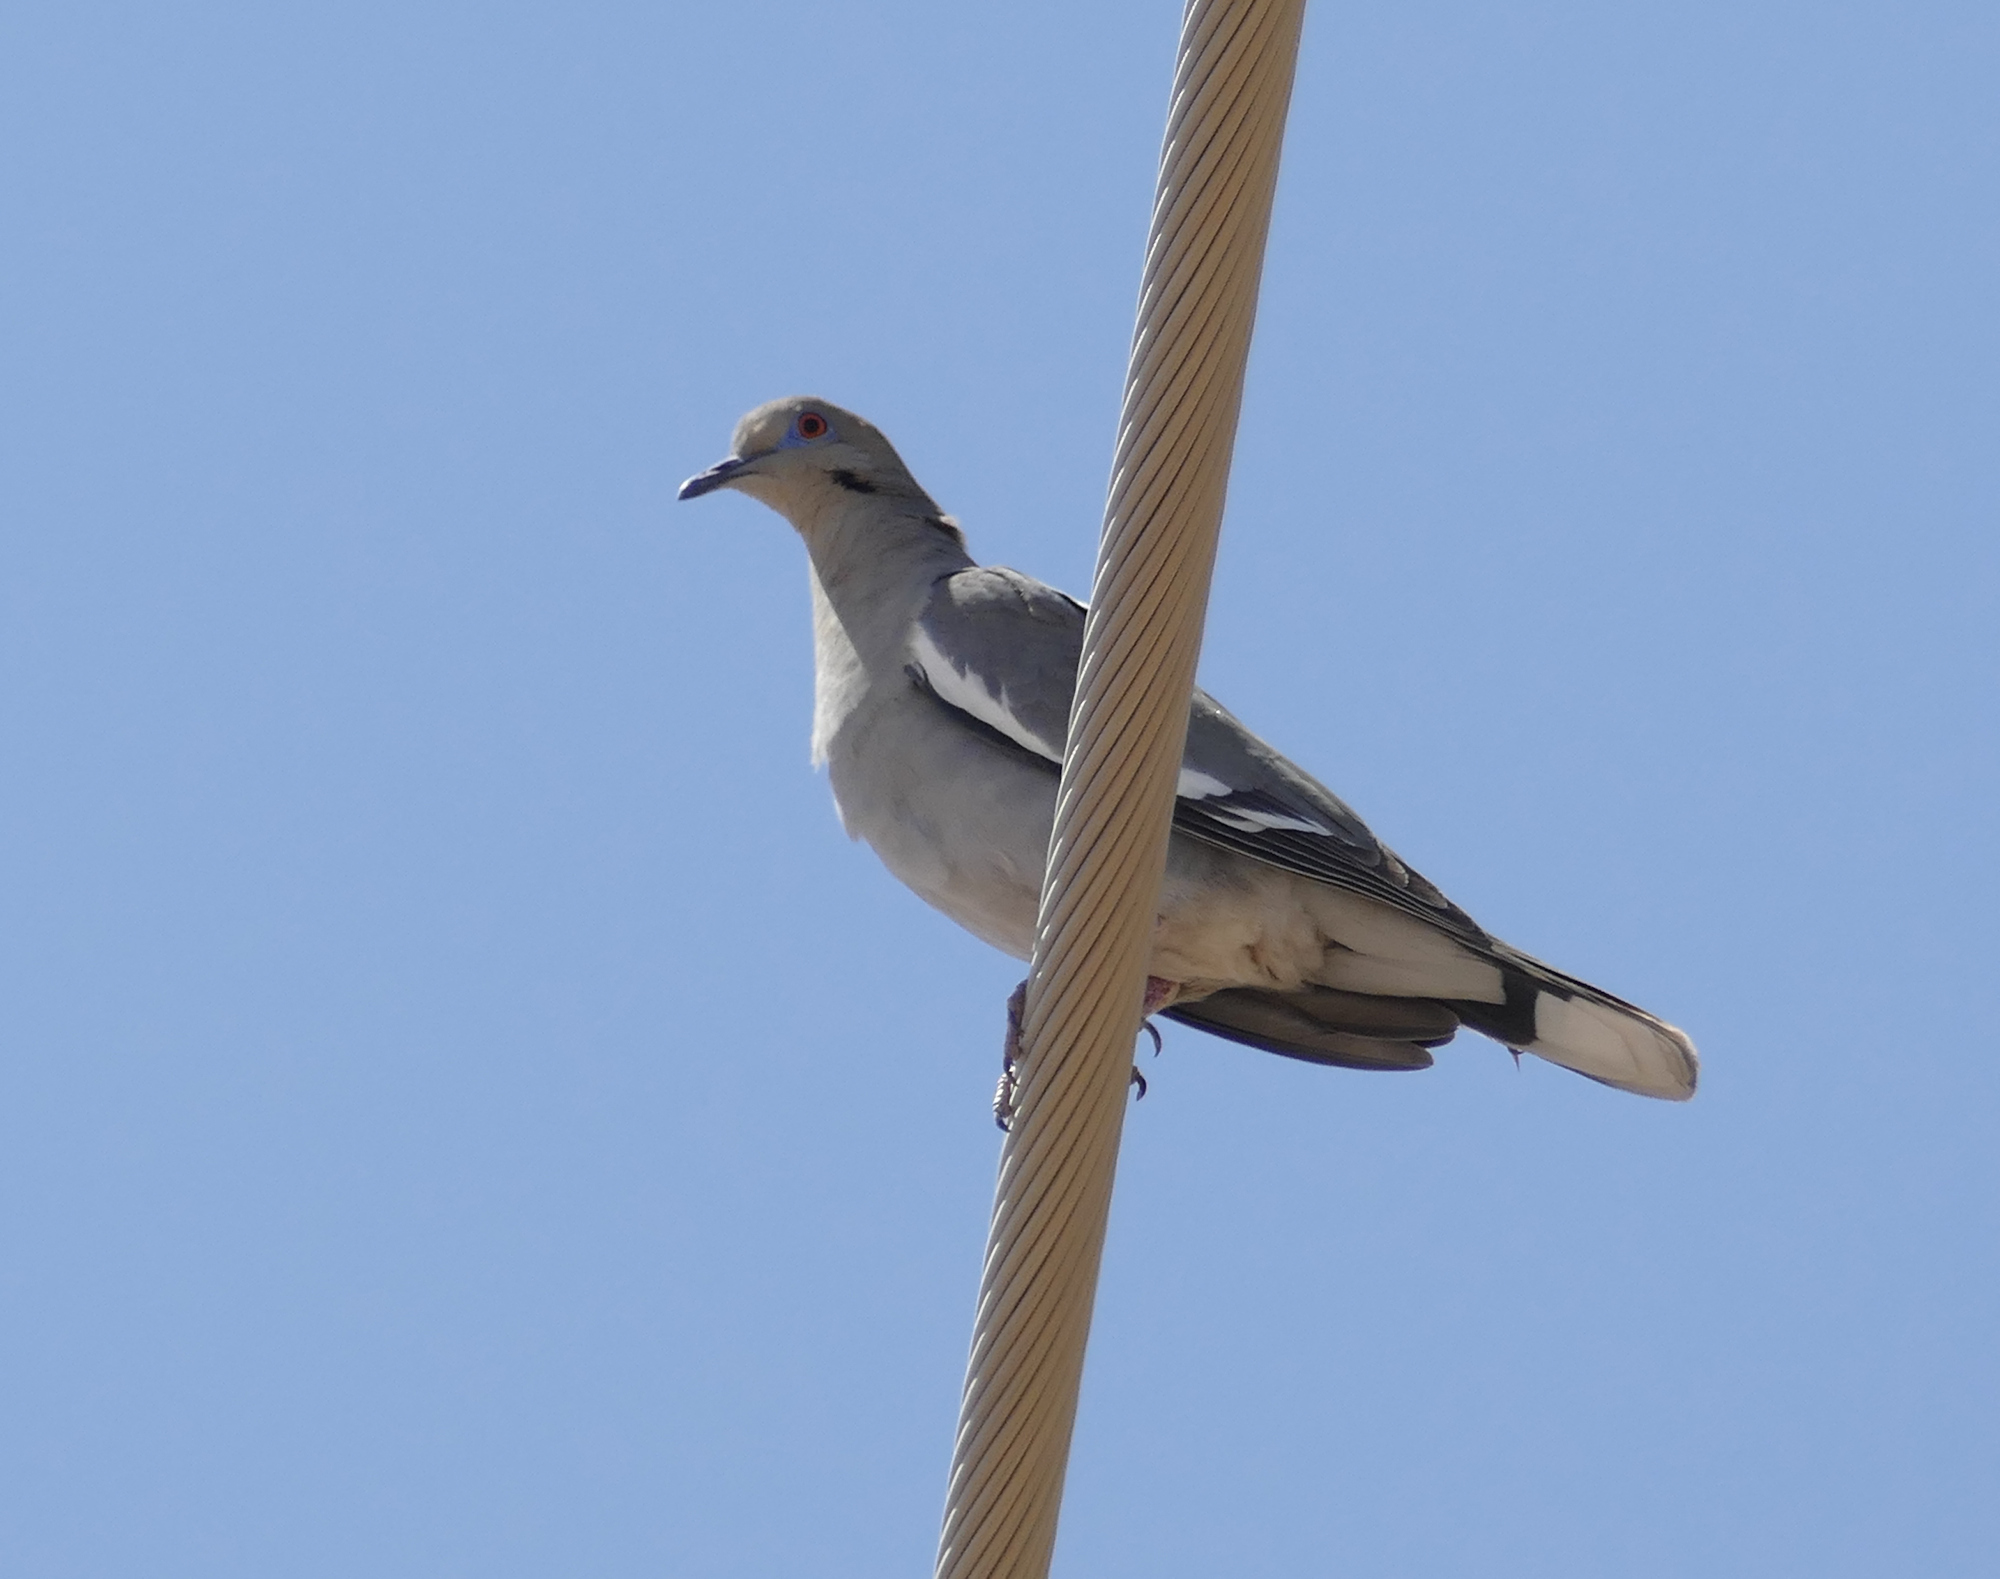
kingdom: Animalia
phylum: Chordata
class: Aves
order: Columbiformes
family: Columbidae
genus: Zenaida
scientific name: Zenaida asiatica
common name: White-winged dove
